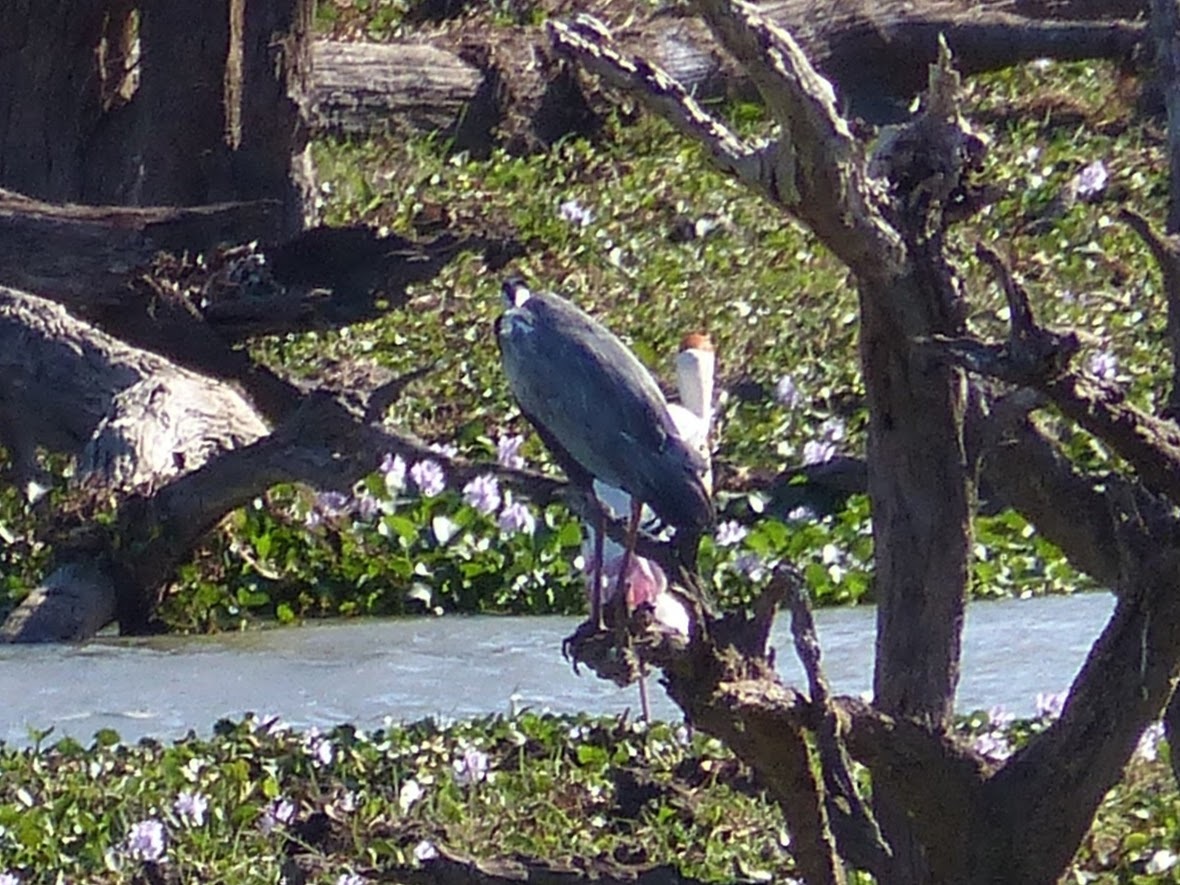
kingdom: Animalia
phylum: Chordata
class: Aves
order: Pelecaniformes
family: Ardeidae
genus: Ardea
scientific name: Ardea cinerea
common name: Grey heron
